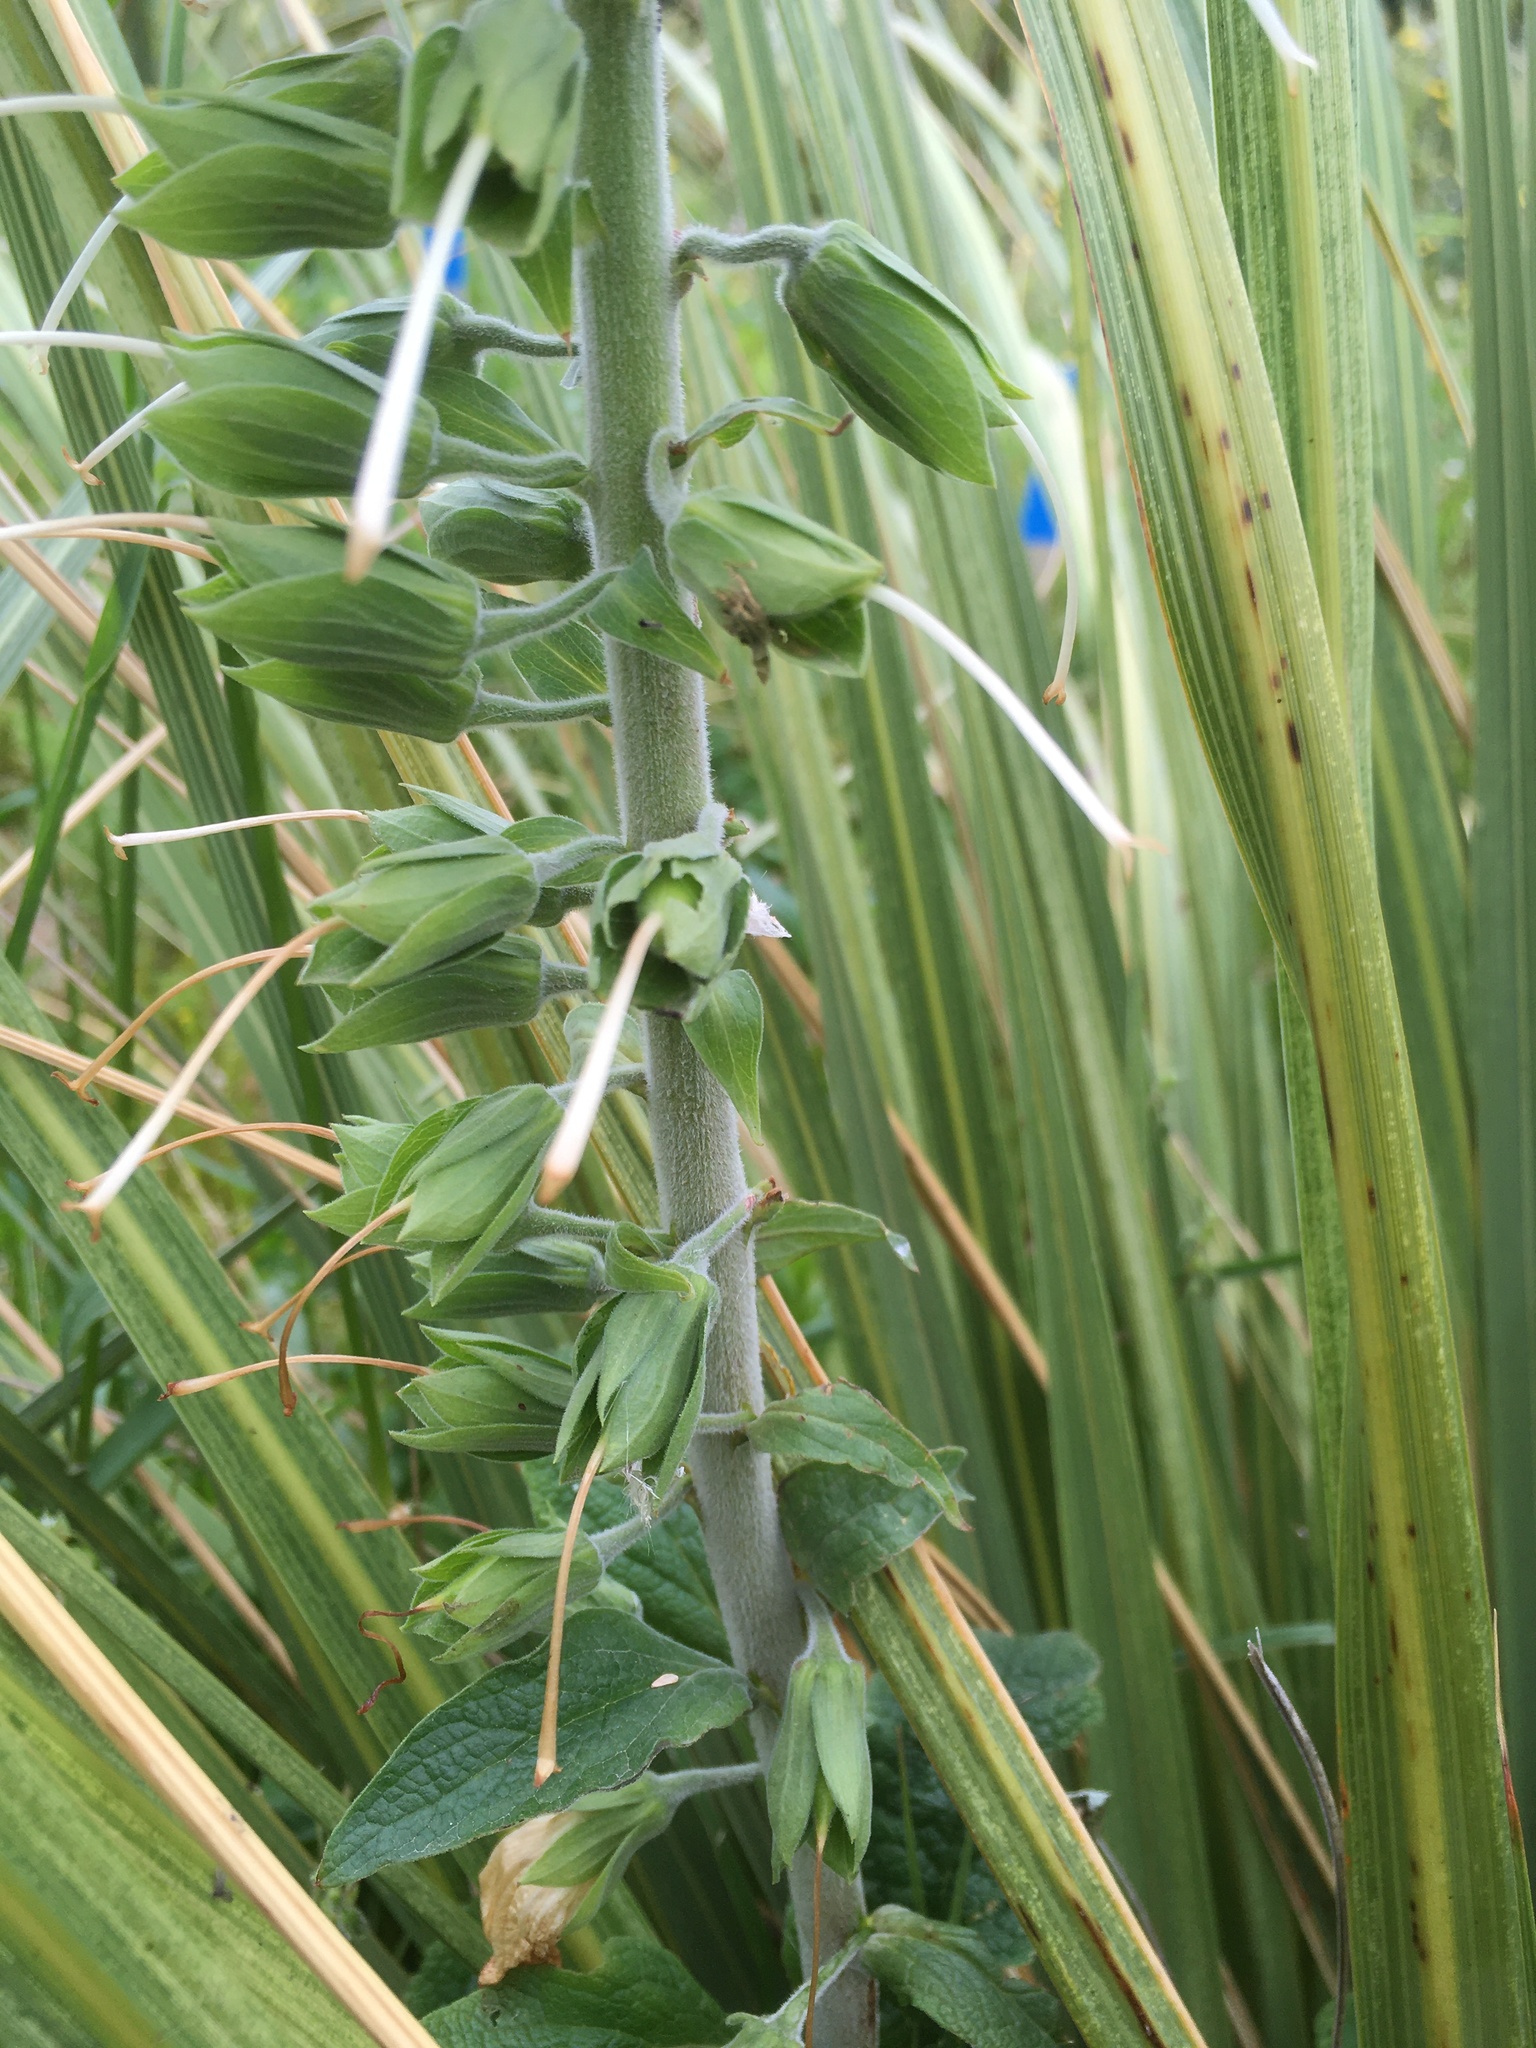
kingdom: Plantae
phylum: Tracheophyta
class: Magnoliopsida
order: Lamiales
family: Plantaginaceae
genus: Digitalis
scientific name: Digitalis purpurea
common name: Foxglove
